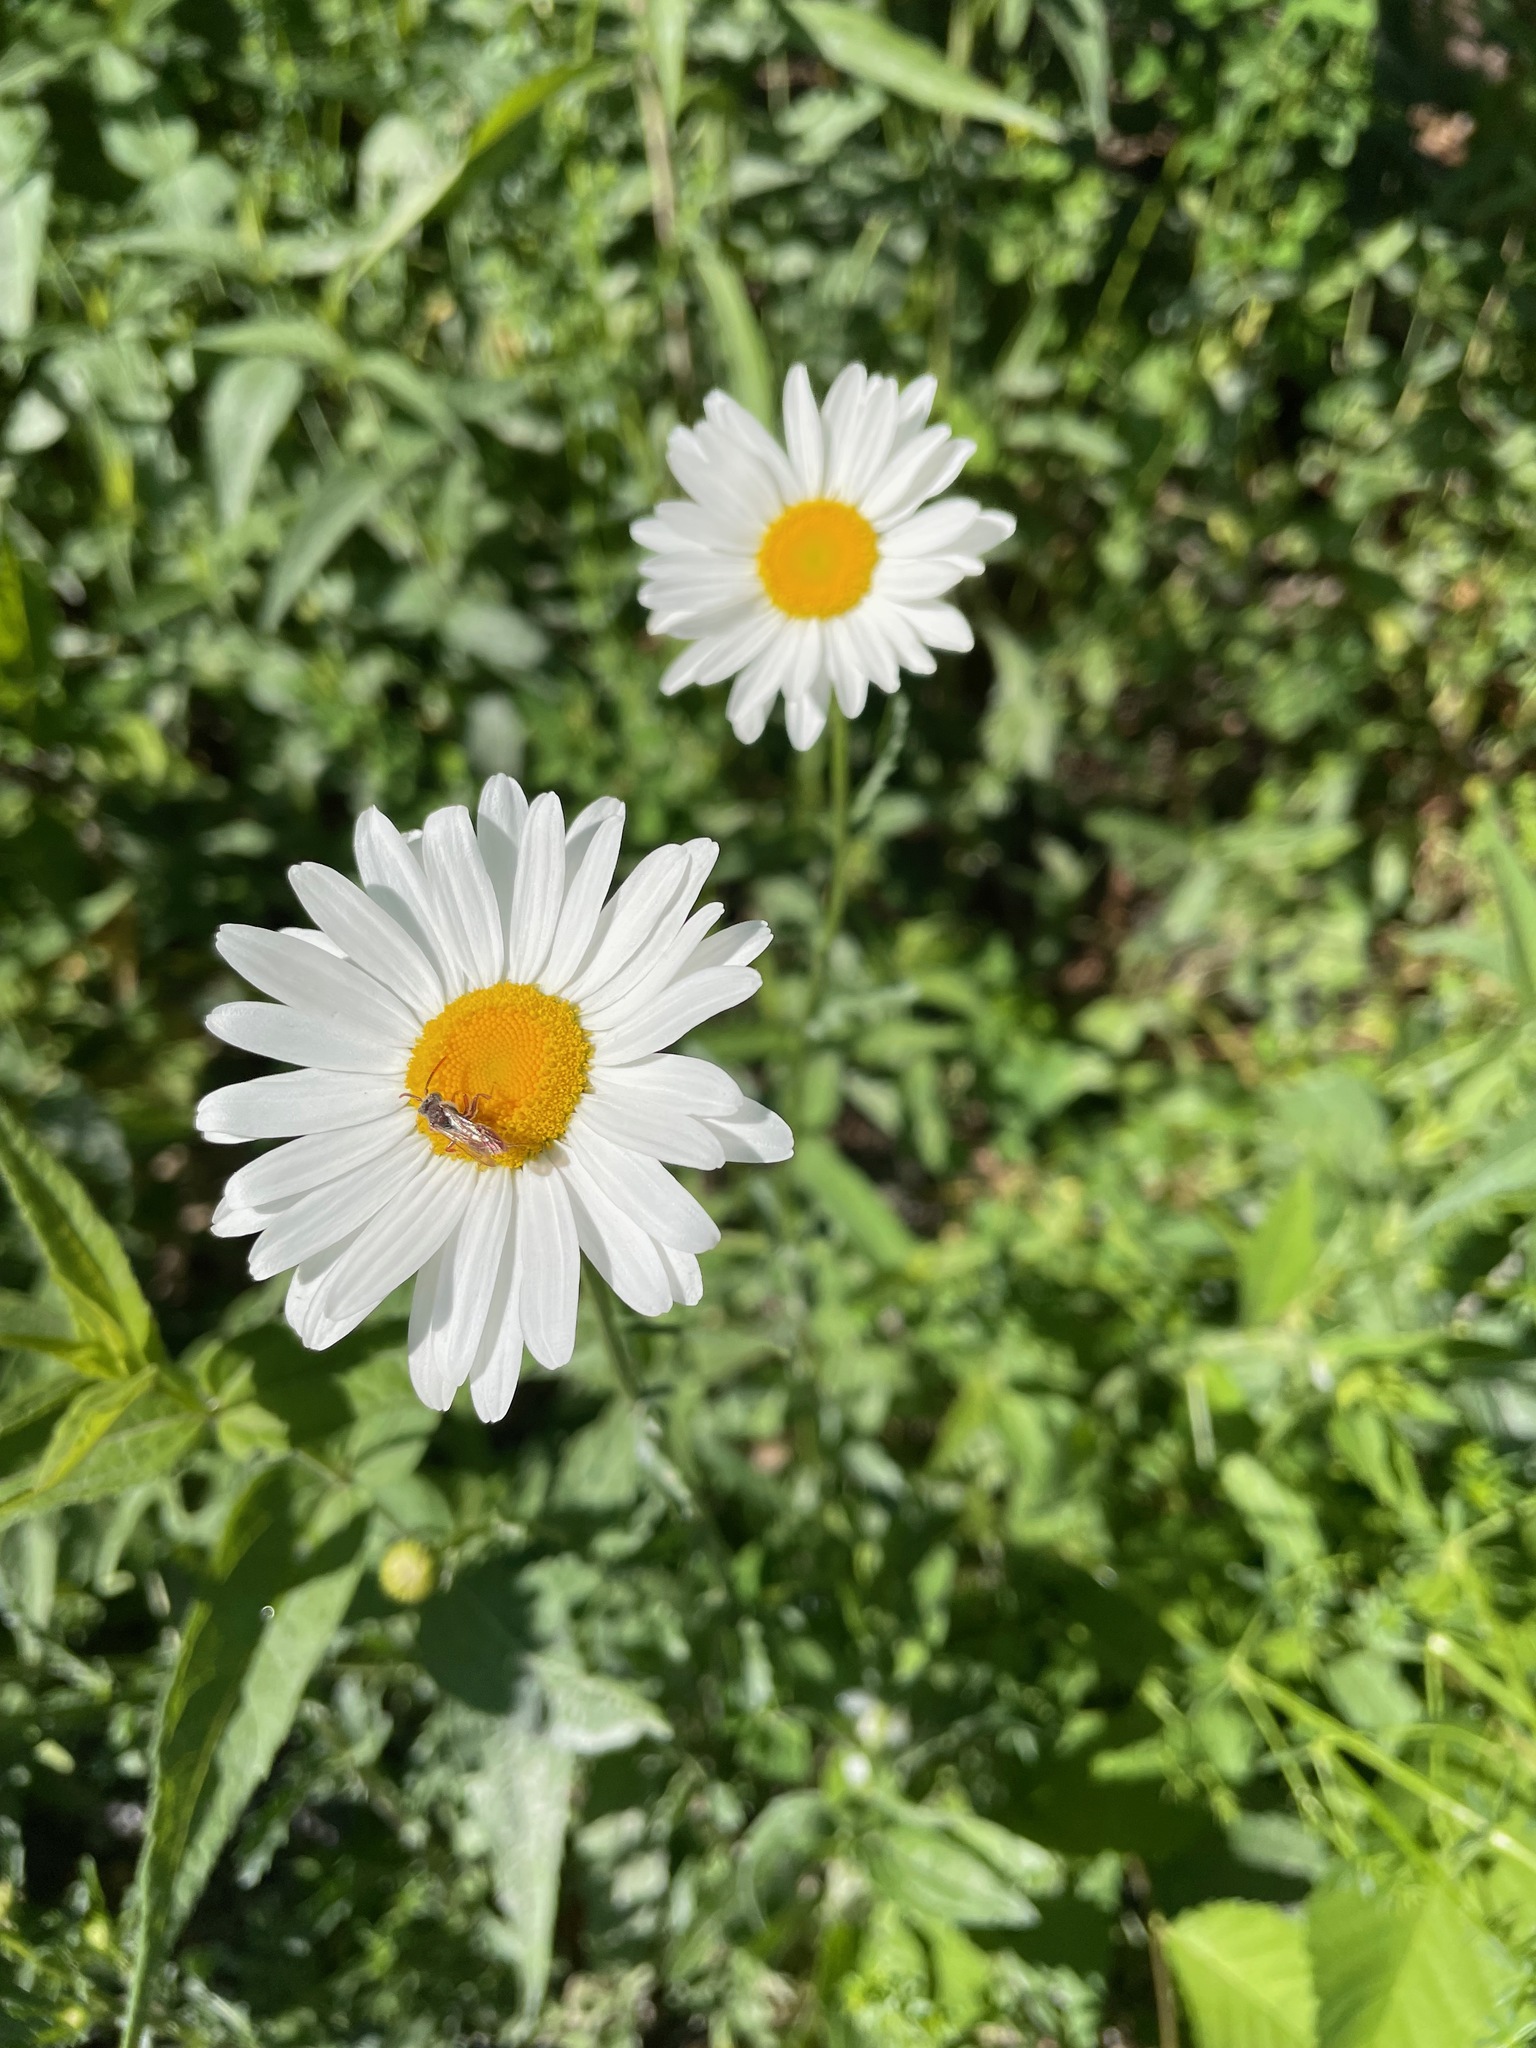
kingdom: Plantae
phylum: Tracheophyta
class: Magnoliopsida
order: Asterales
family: Asteraceae
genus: Leucanthemum
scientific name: Leucanthemum vulgare
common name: Oxeye daisy
